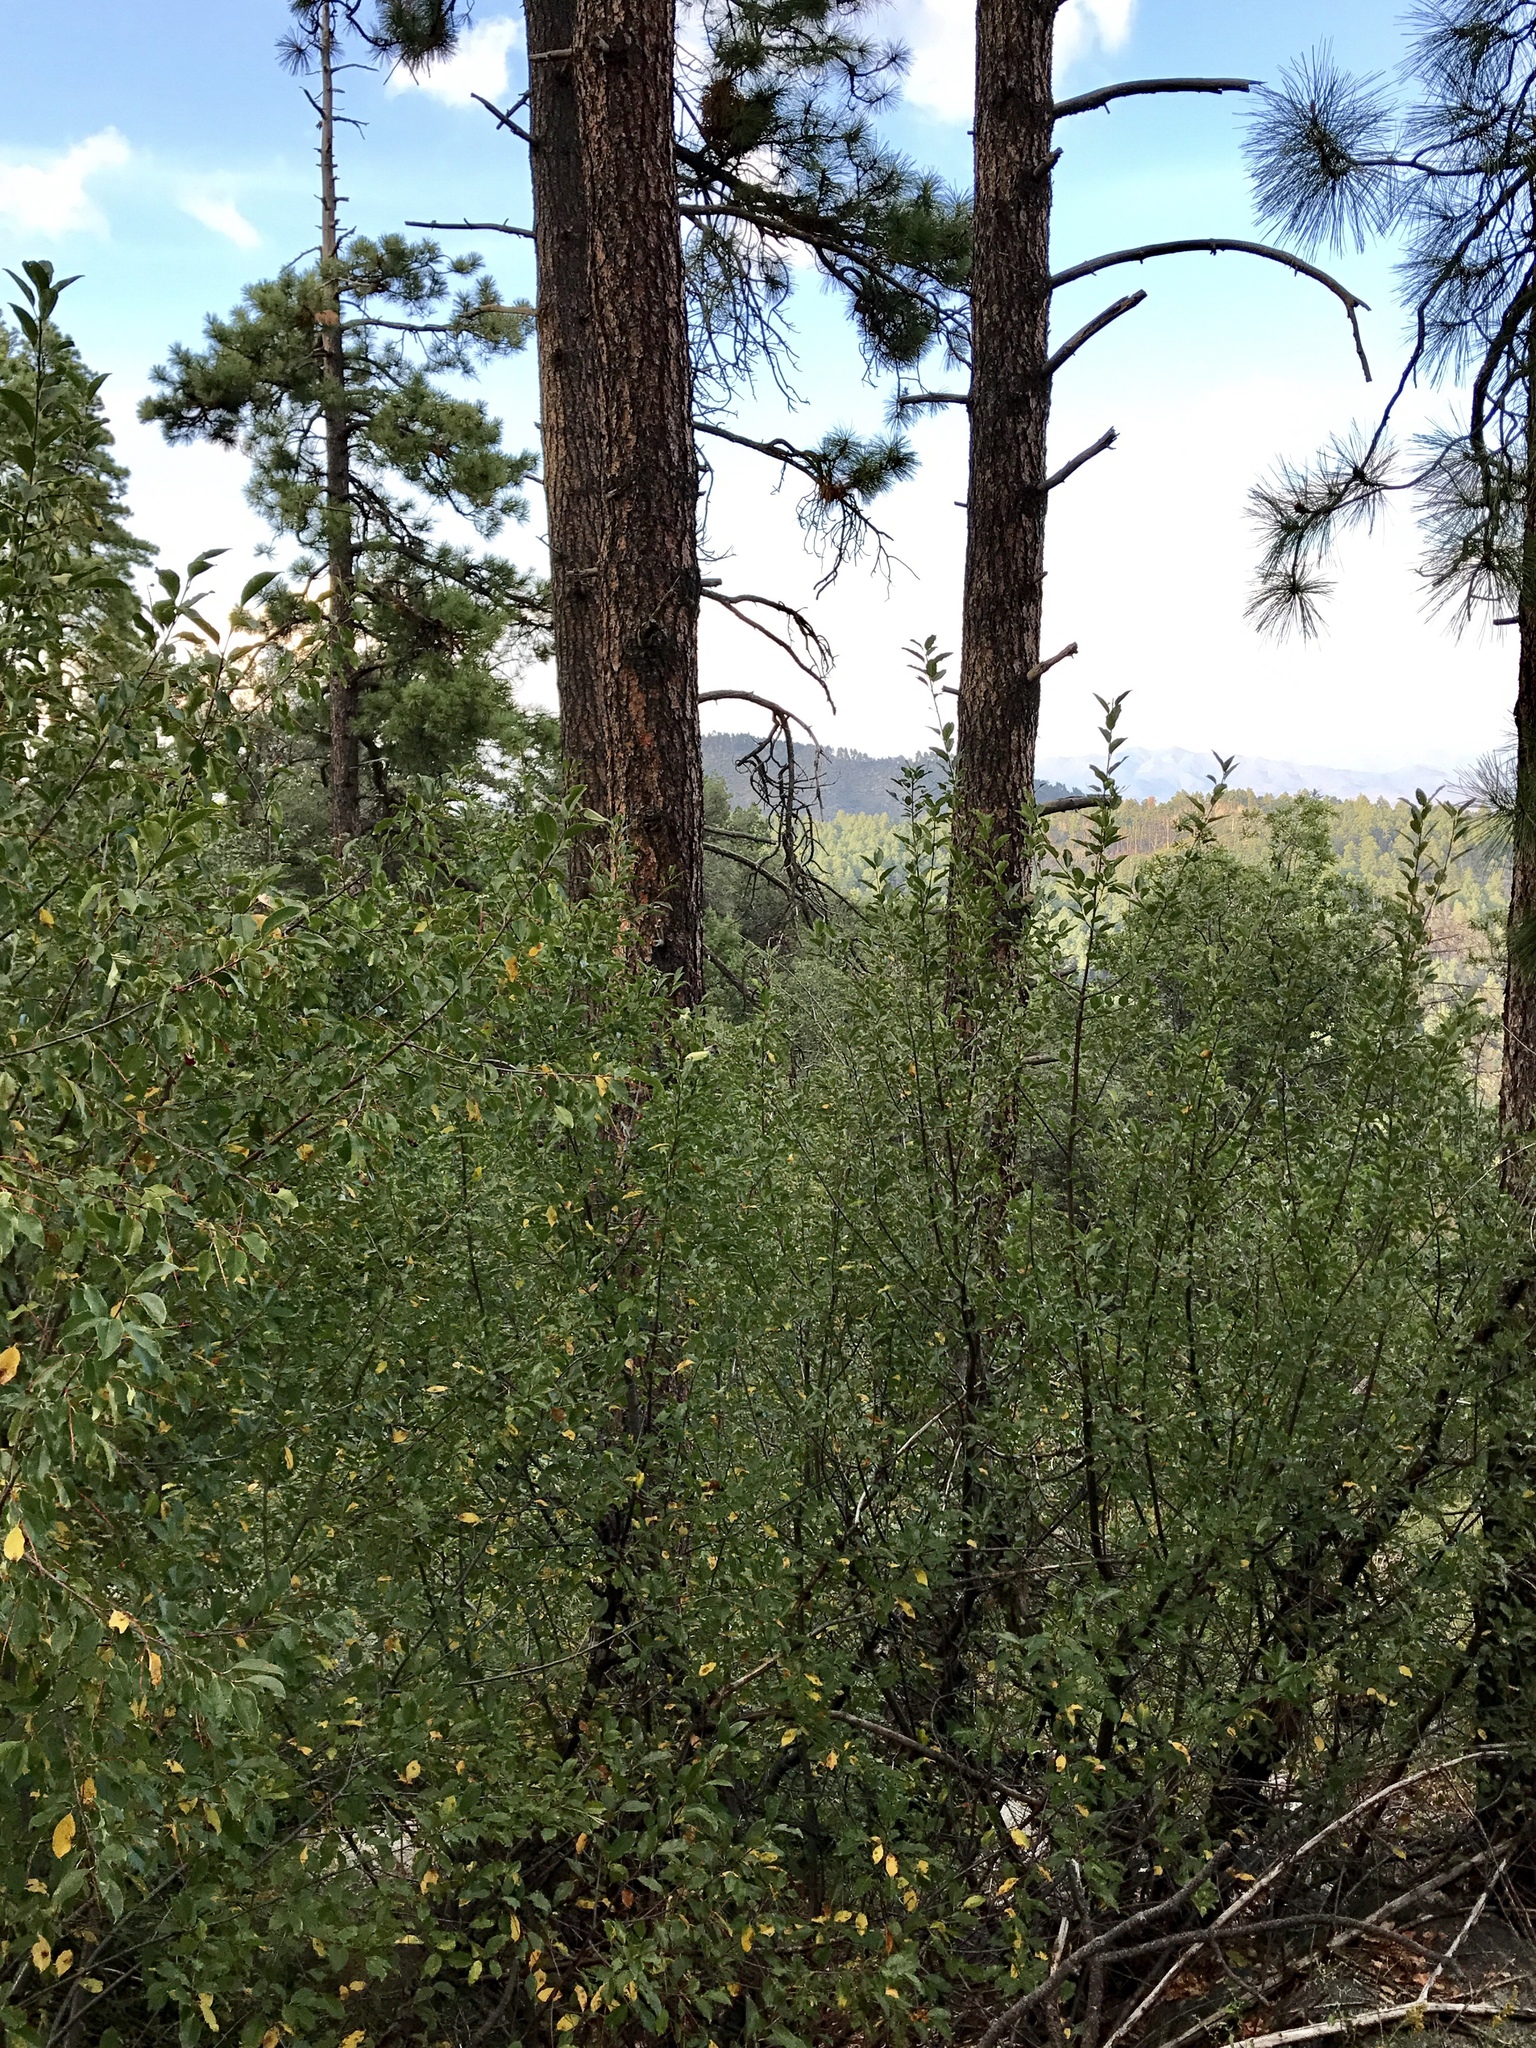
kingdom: Plantae
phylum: Tracheophyta
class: Pinopsida
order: Pinales
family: Pinaceae
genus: Pinus
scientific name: Pinus ponderosa
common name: Western yellow-pine
